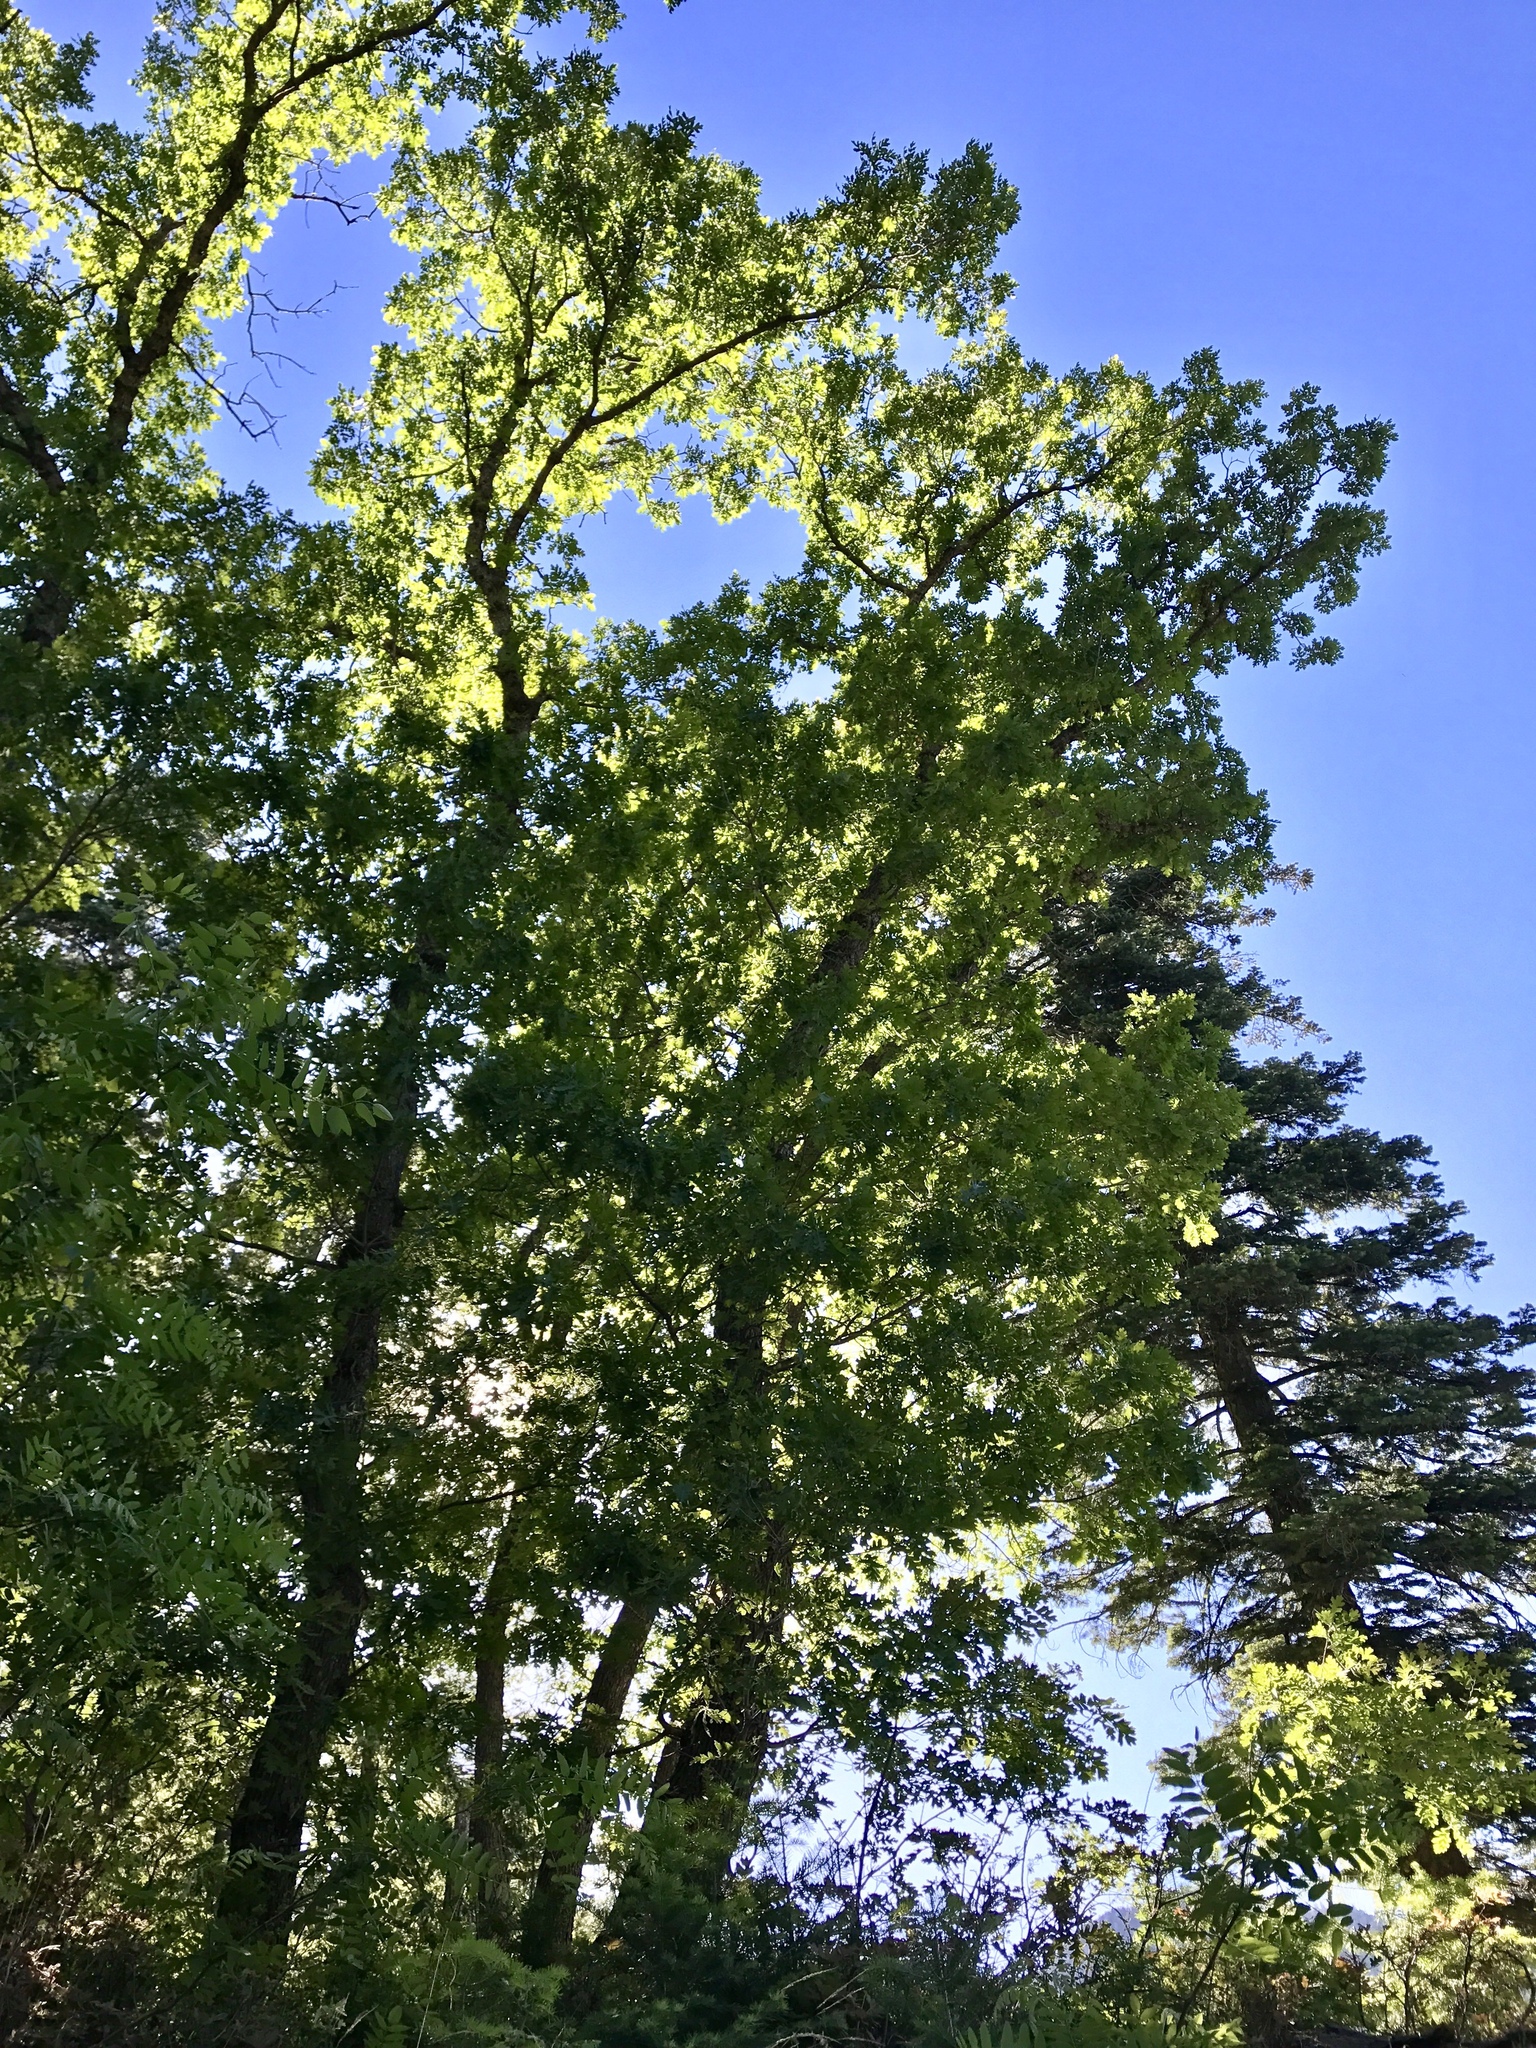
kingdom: Plantae
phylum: Tracheophyta
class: Magnoliopsida
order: Fagales
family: Fagaceae
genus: Quercus
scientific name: Quercus gambelii
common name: Gambel oak
